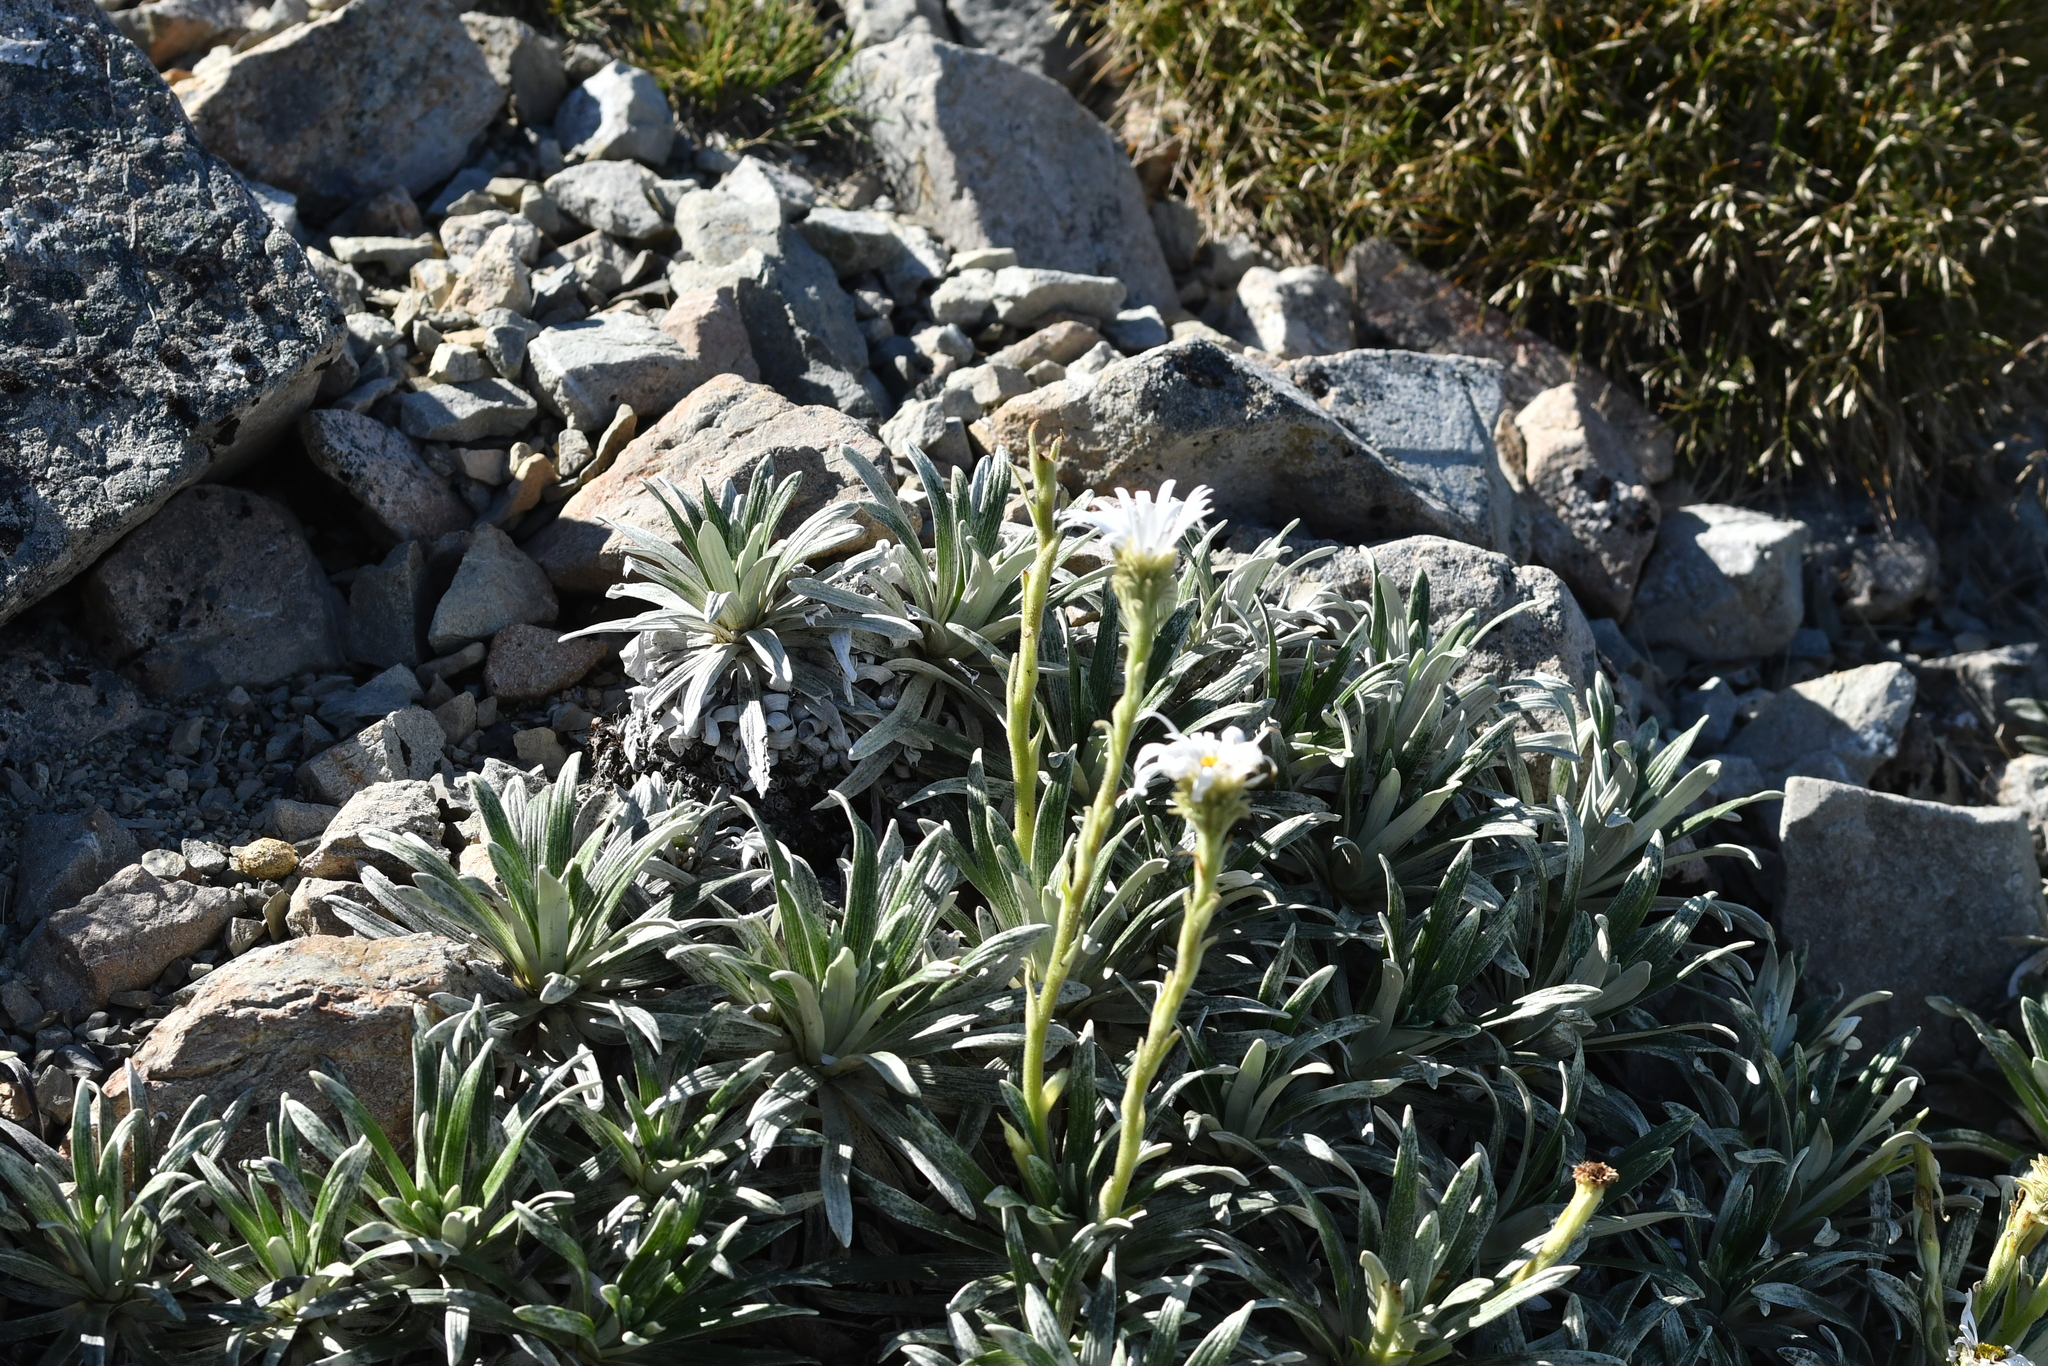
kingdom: Plantae
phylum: Tracheophyta
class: Magnoliopsida
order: Asterales
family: Asteraceae
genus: Celmisia
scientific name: Celmisia viscosa
